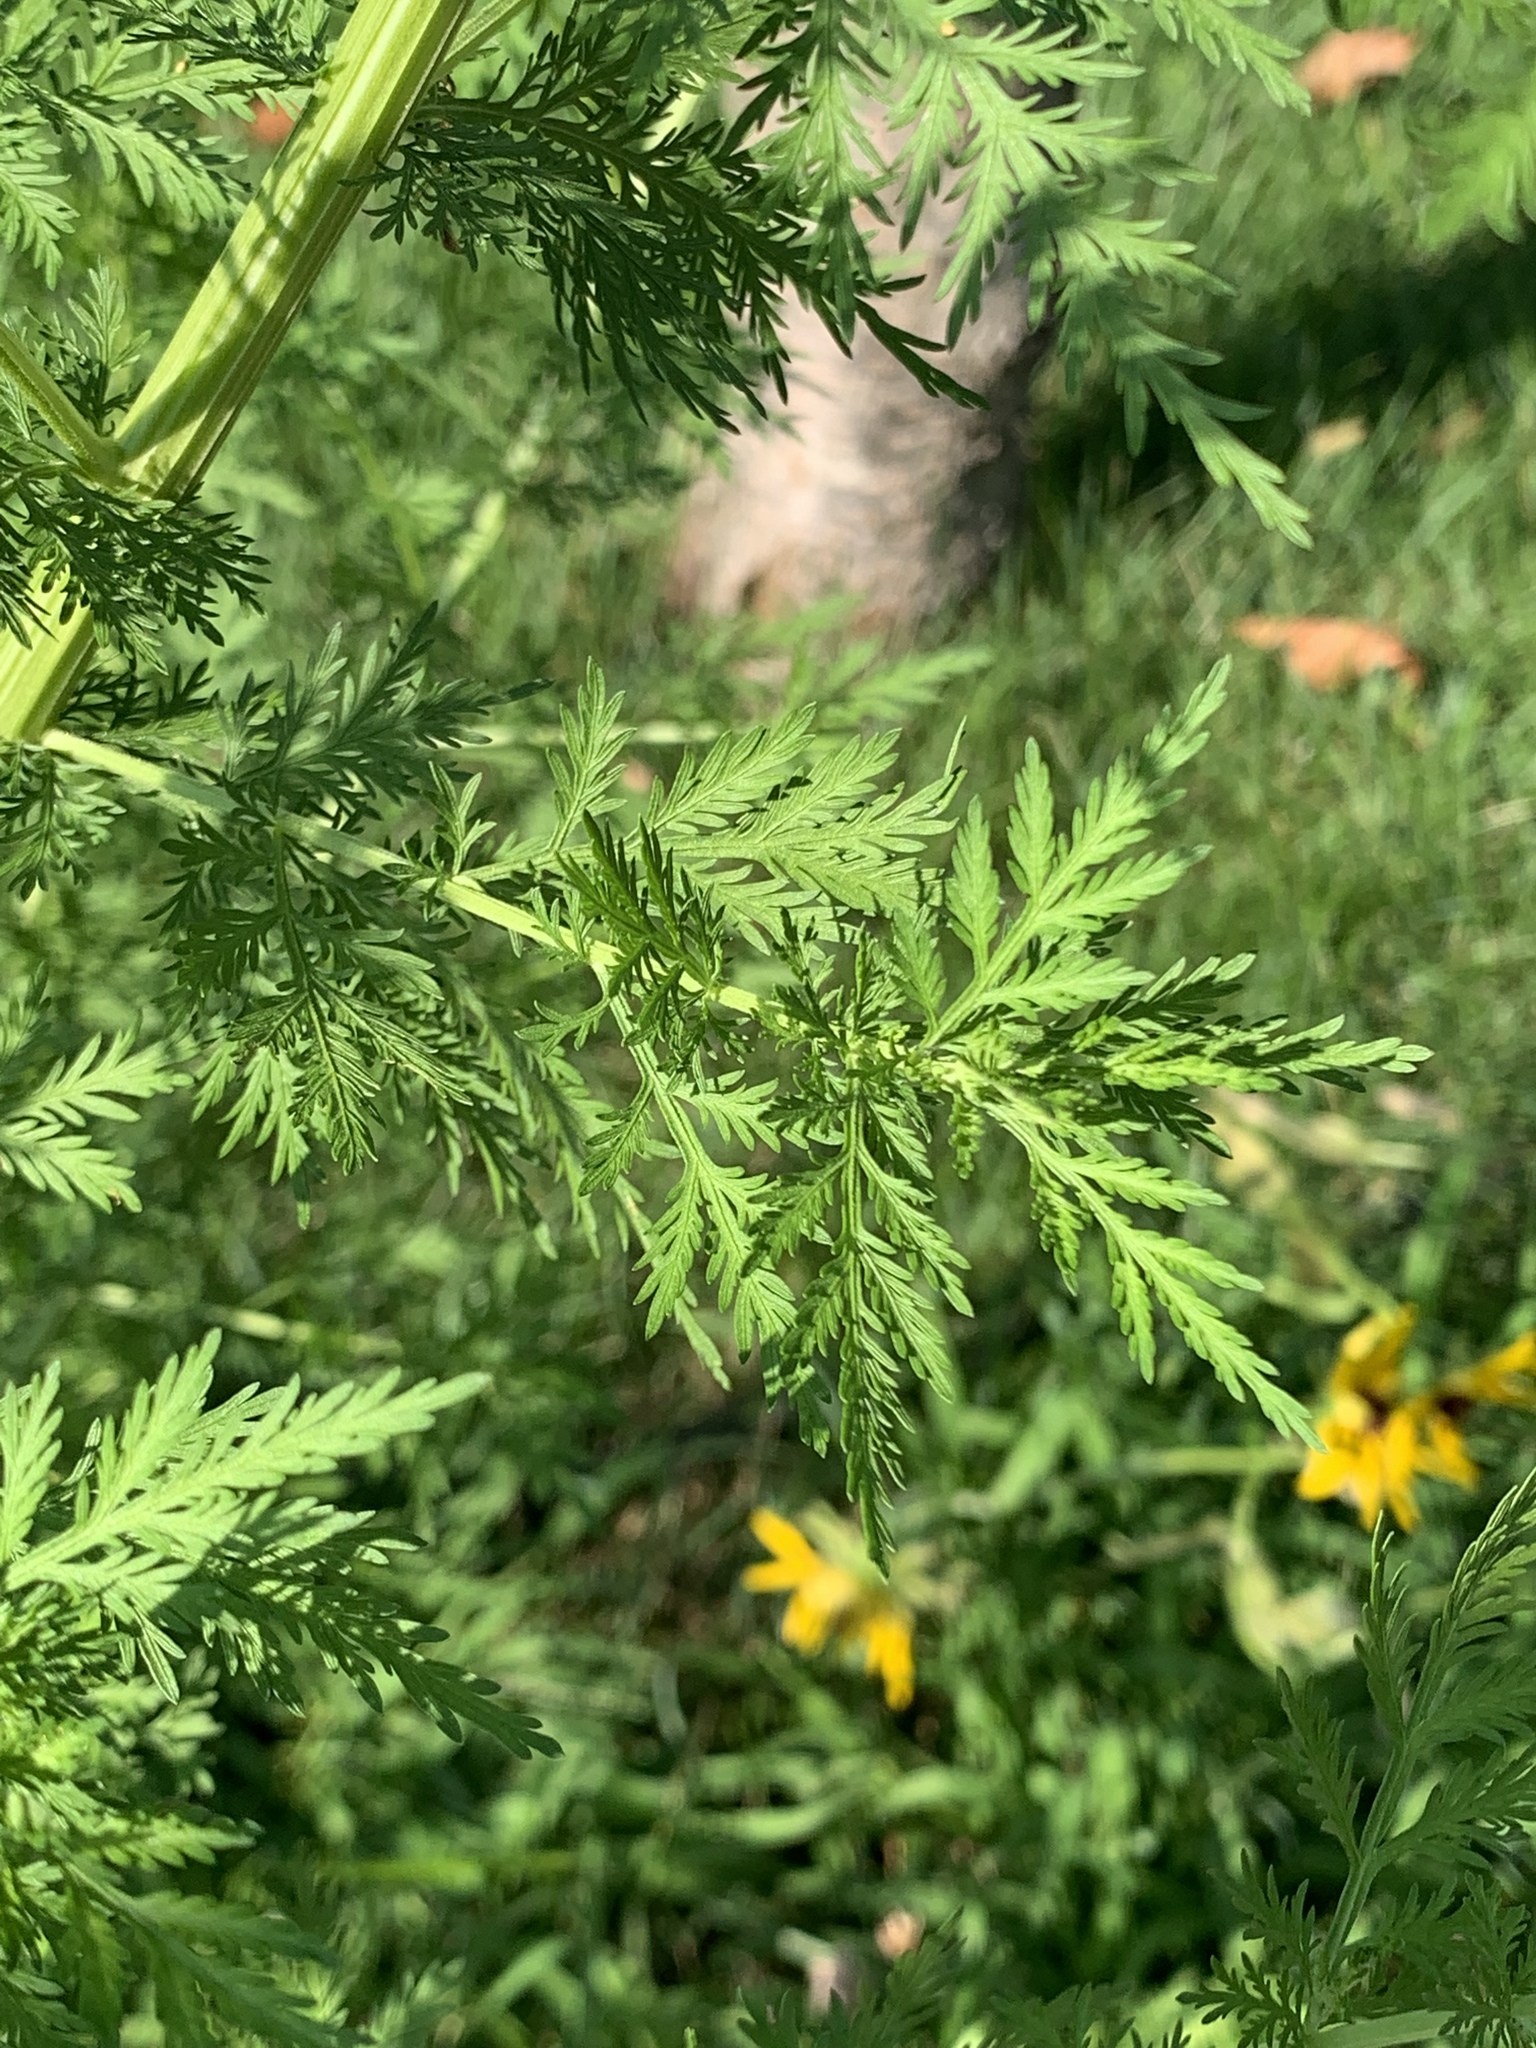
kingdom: Plantae
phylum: Tracheophyta
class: Magnoliopsida
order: Asterales
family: Asteraceae
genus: Artemisia
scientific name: Artemisia annua
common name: Sweet sagewort
